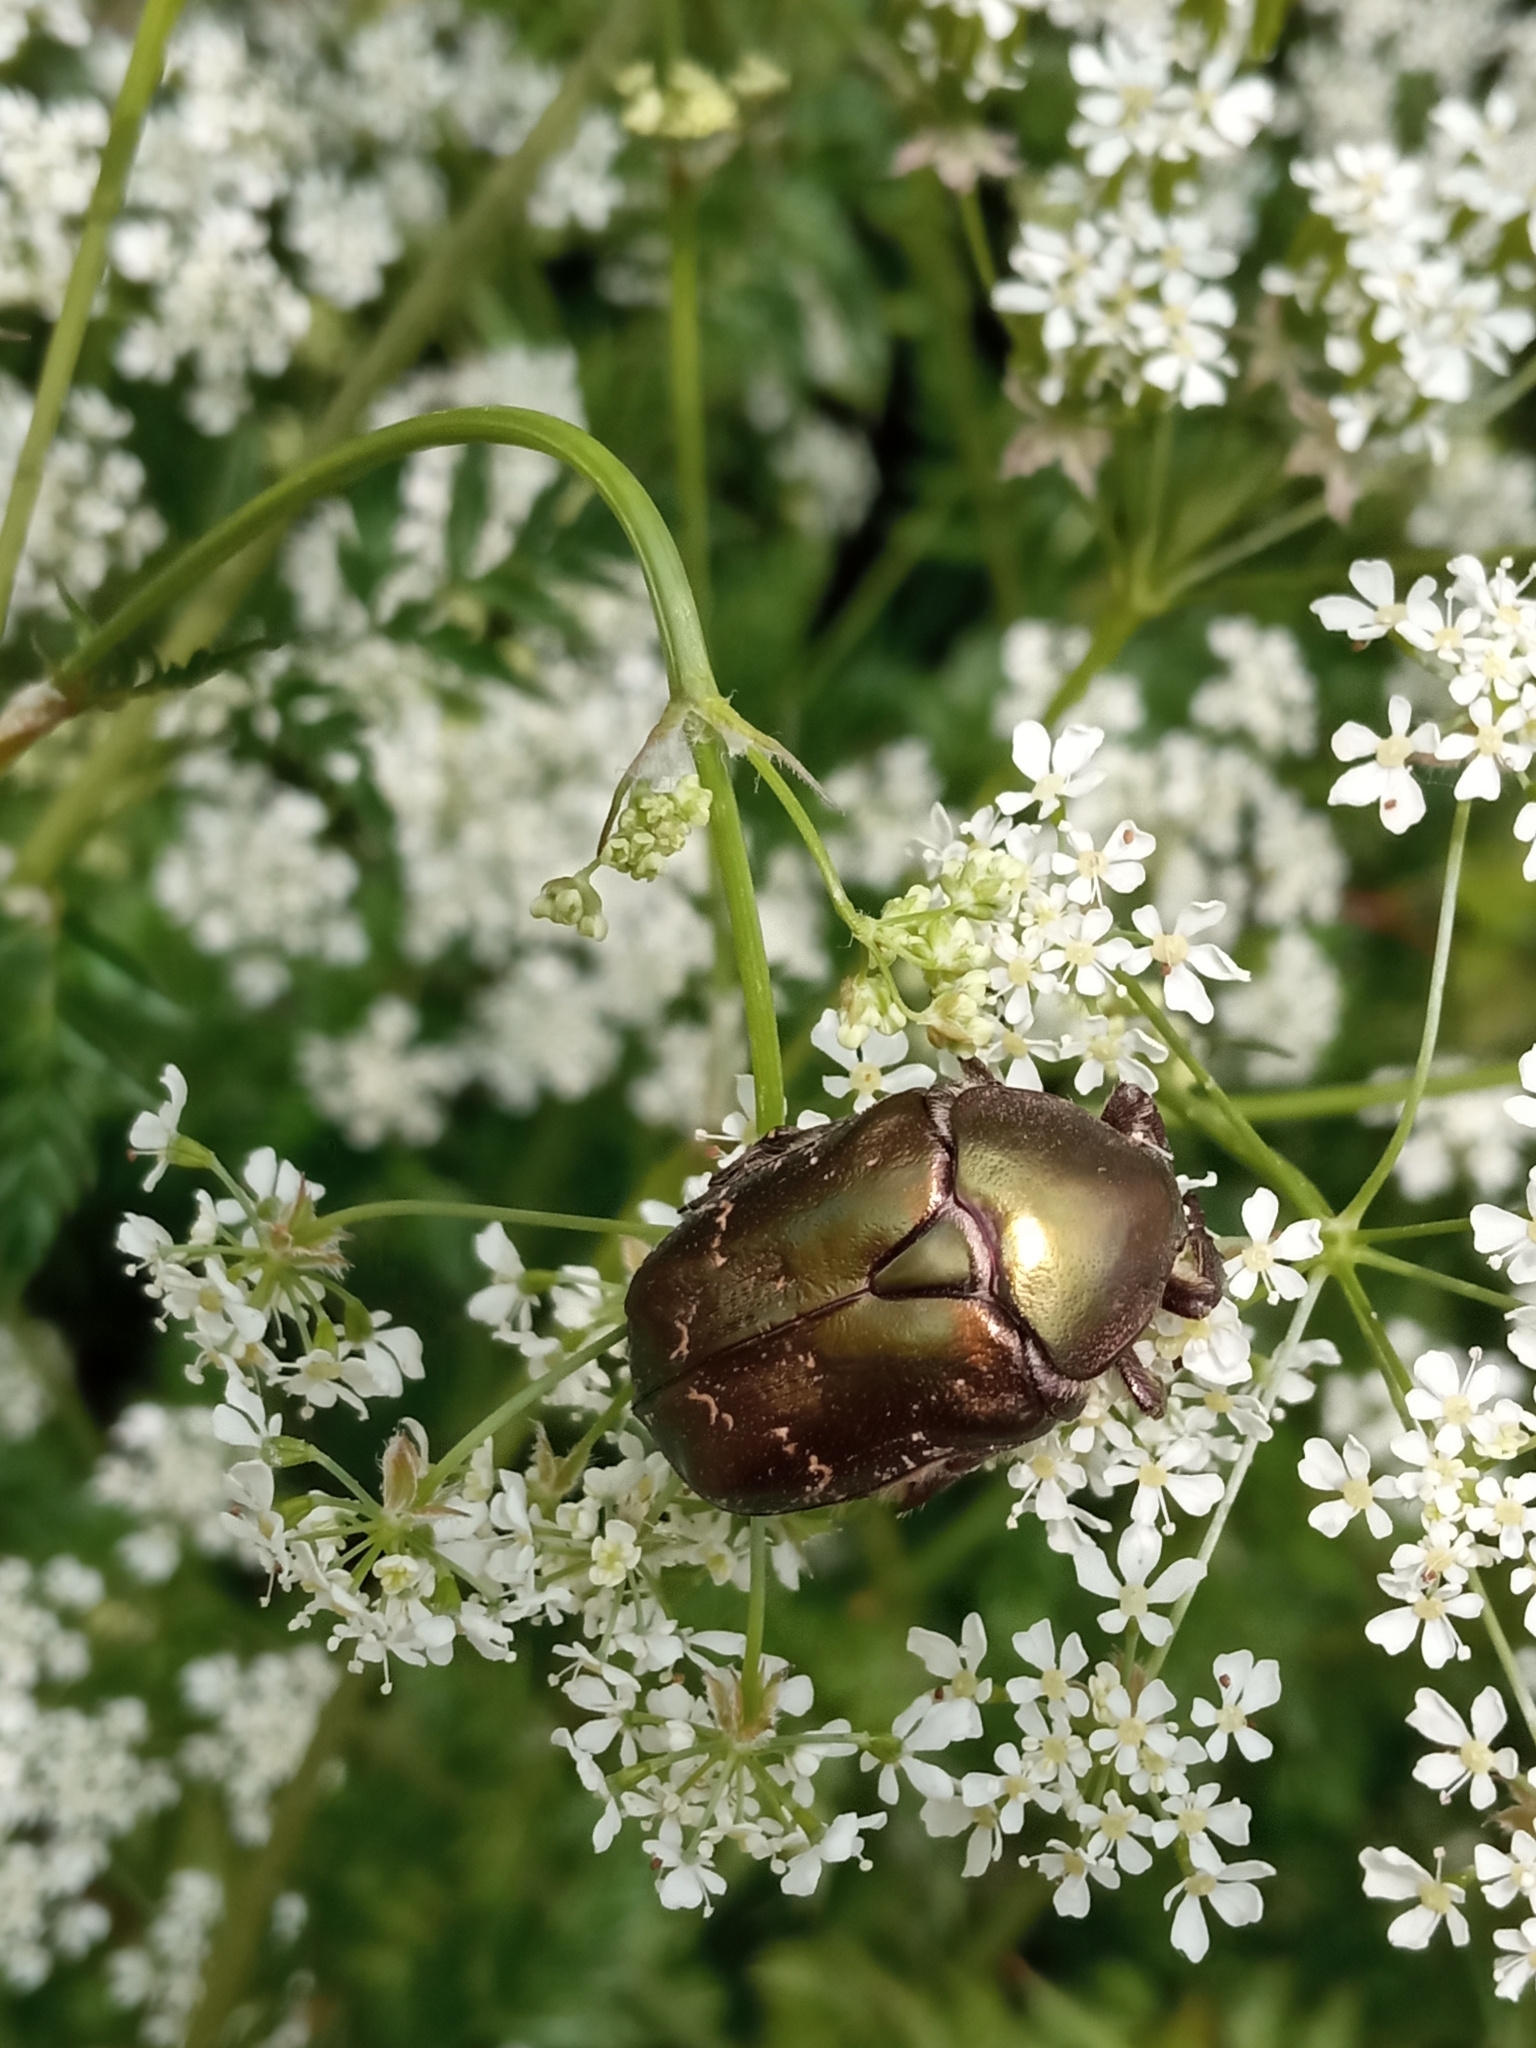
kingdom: Animalia
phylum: Arthropoda
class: Insecta
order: Coleoptera
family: Scarabaeidae
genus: Protaetia
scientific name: Protaetia cuprea
